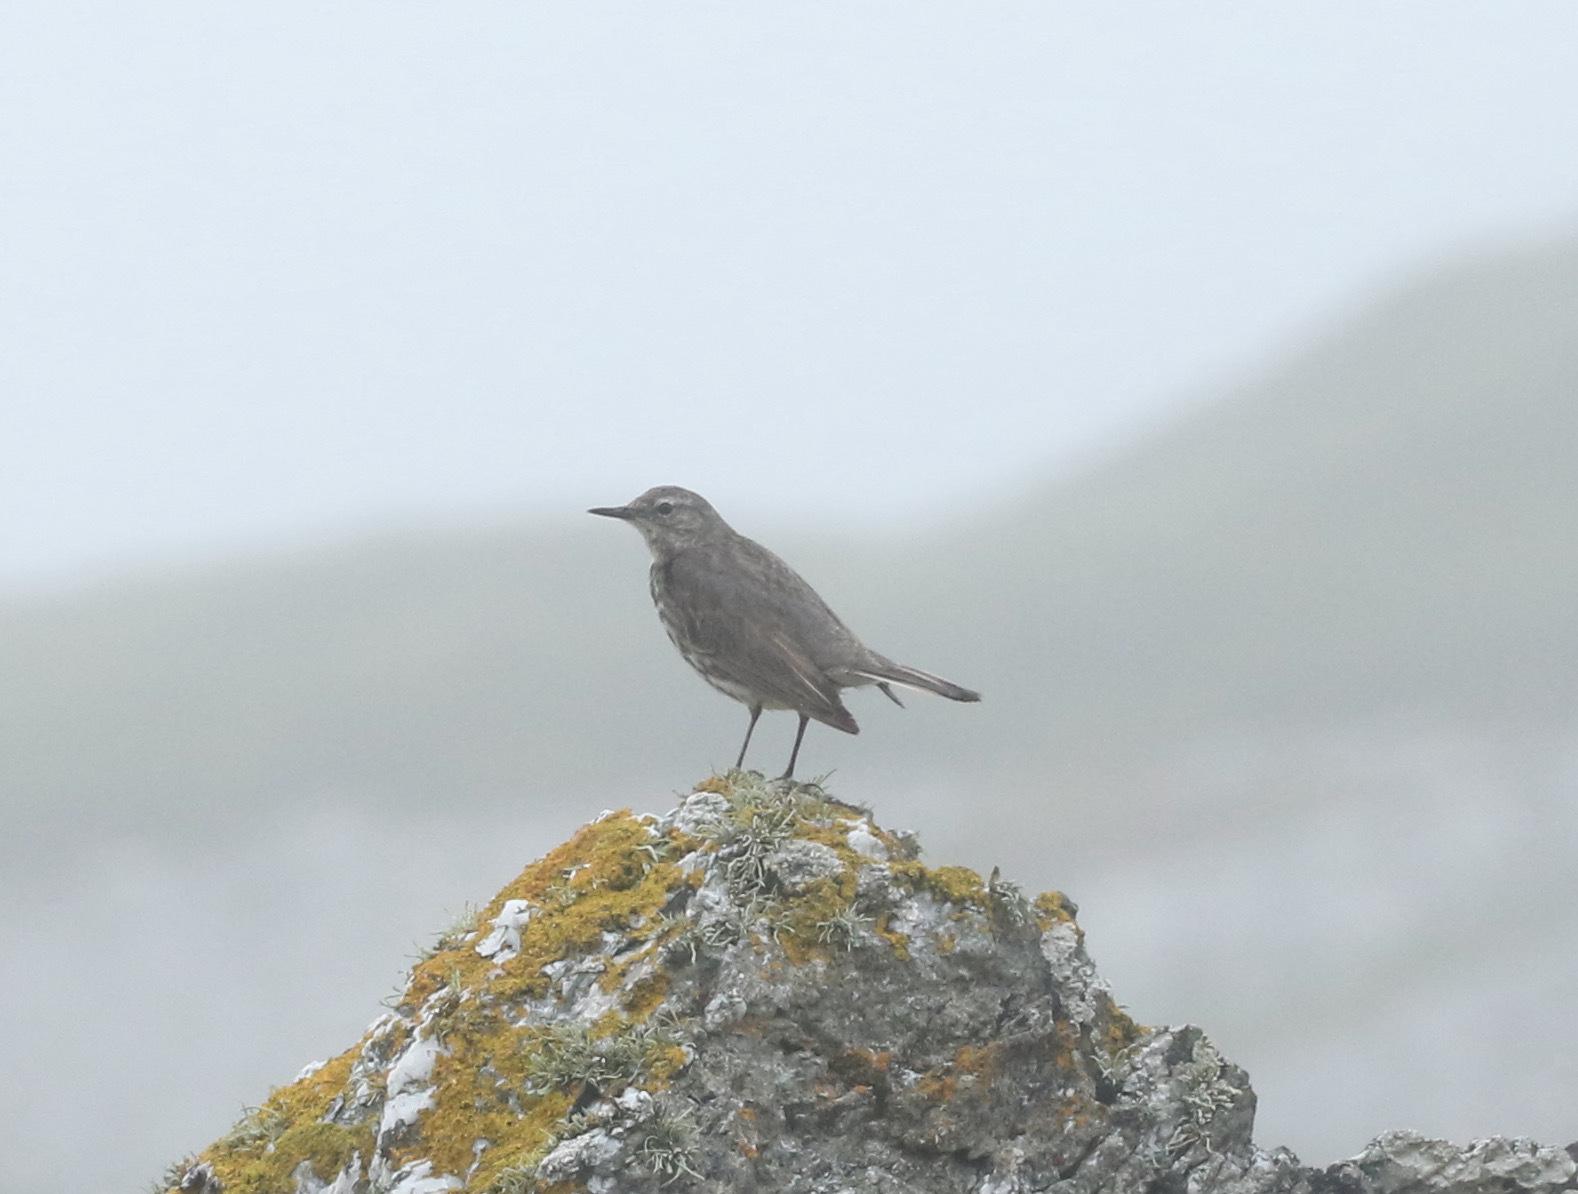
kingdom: Animalia
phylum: Chordata
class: Aves
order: Passeriformes
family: Motacillidae
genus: Anthus
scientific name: Anthus petrosus
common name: Eurasian rock pipit
